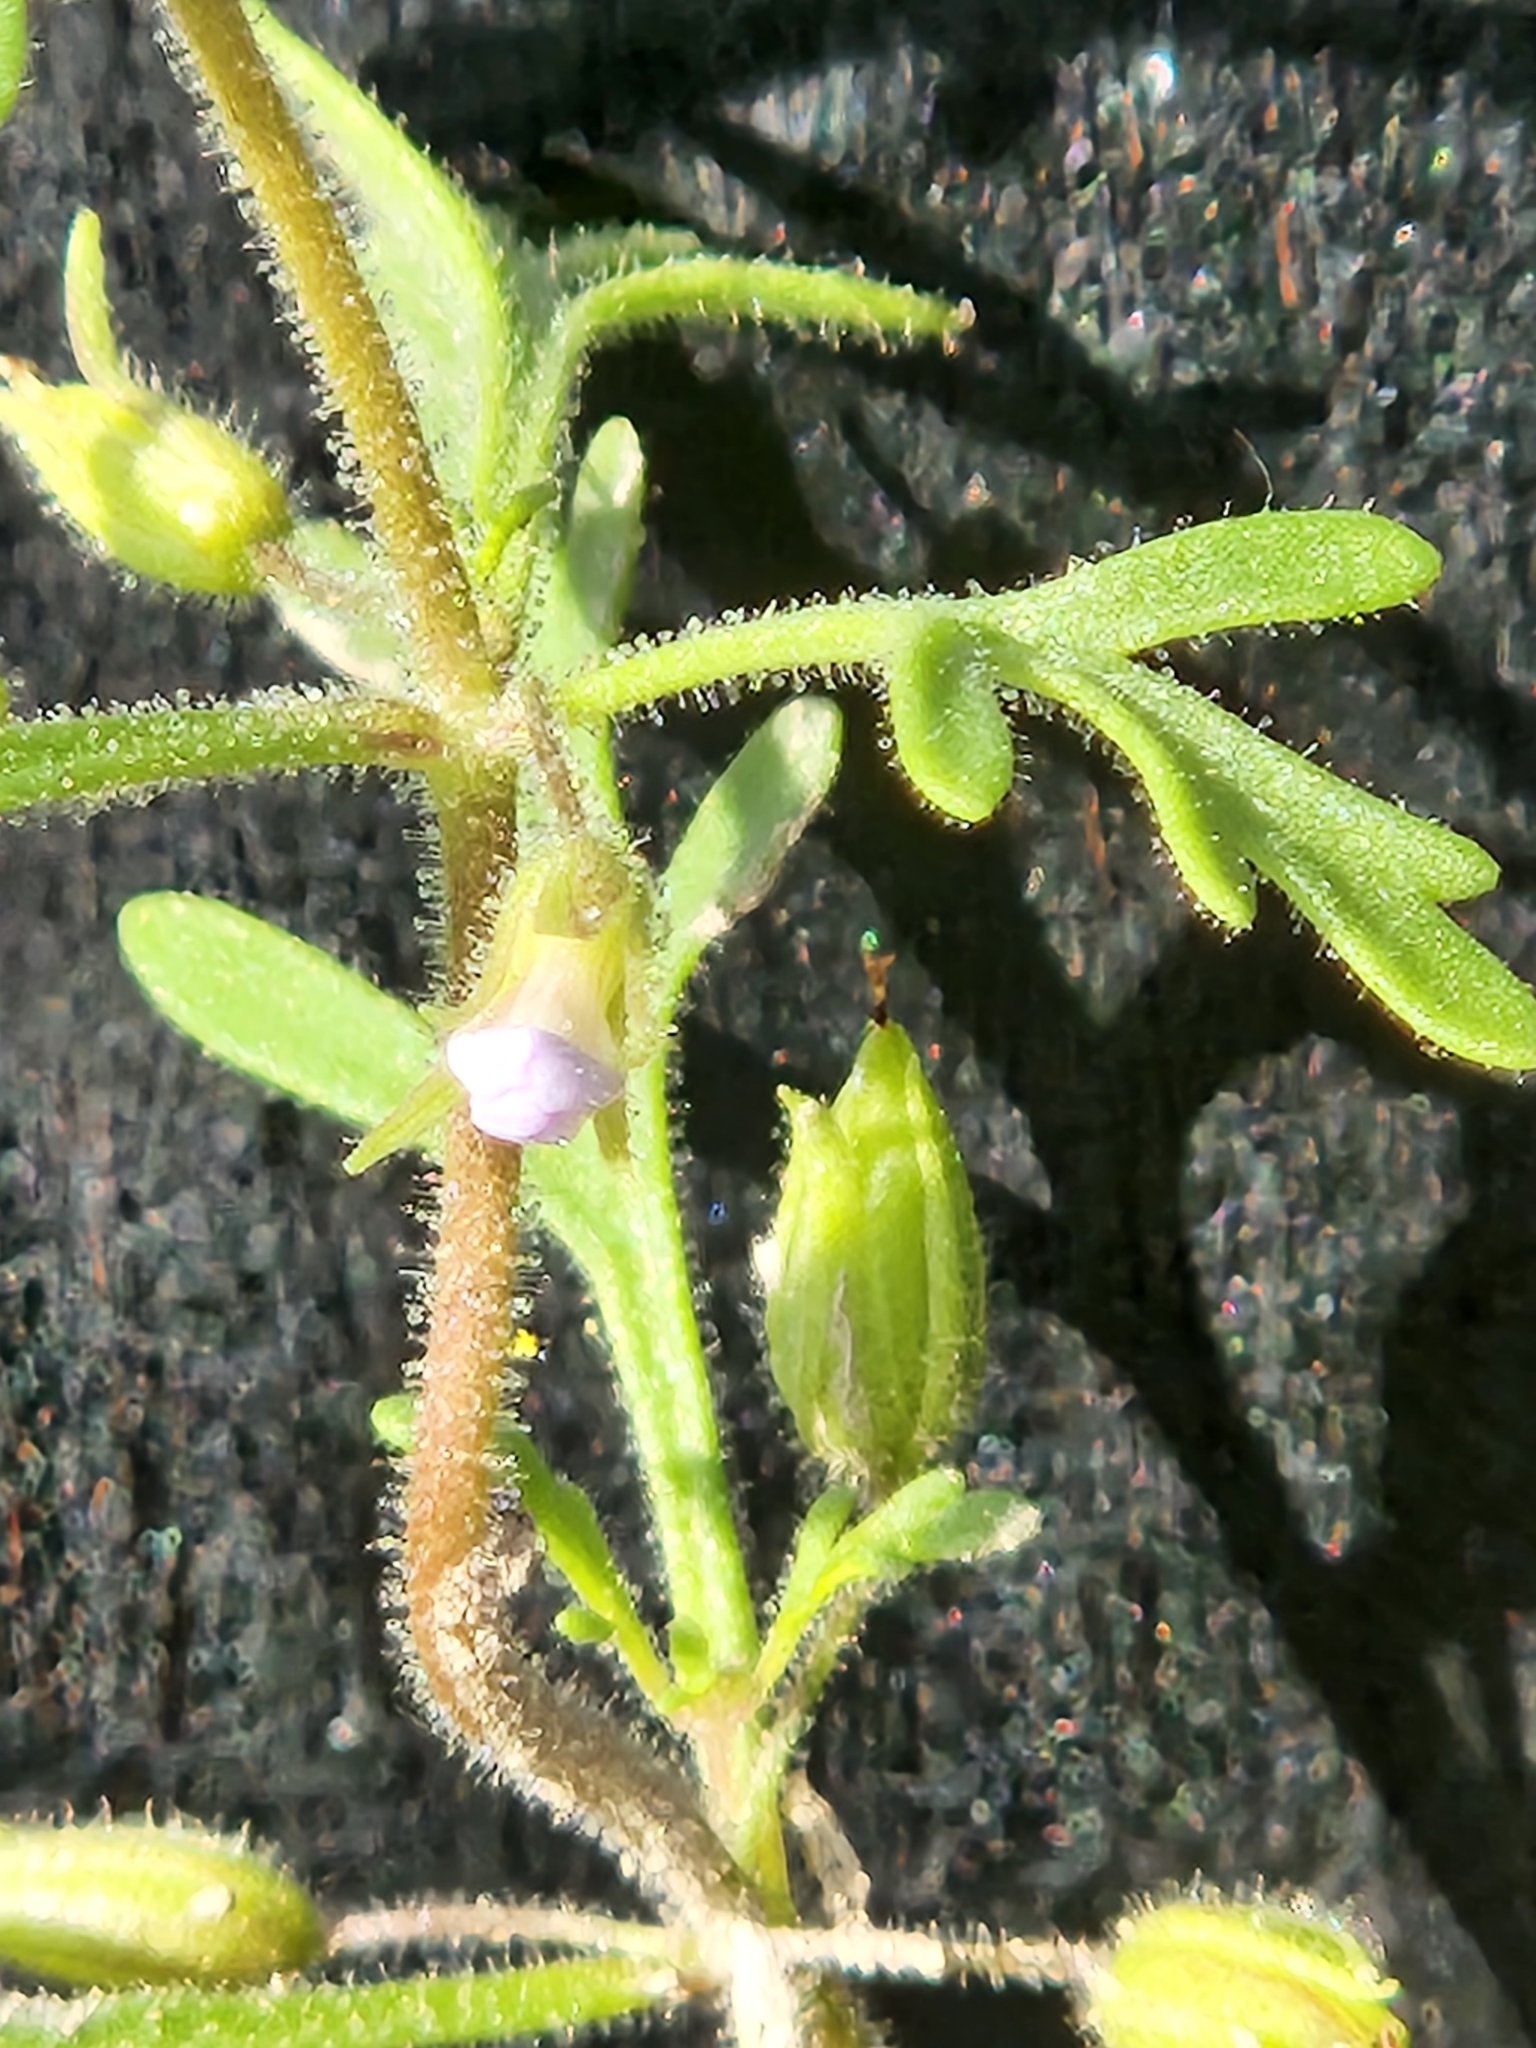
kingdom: Plantae
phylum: Tracheophyta
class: Magnoliopsida
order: Lamiales
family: Plantaginaceae
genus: Leucospora
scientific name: Leucospora multifida
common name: Narrow-leaf paleseed
